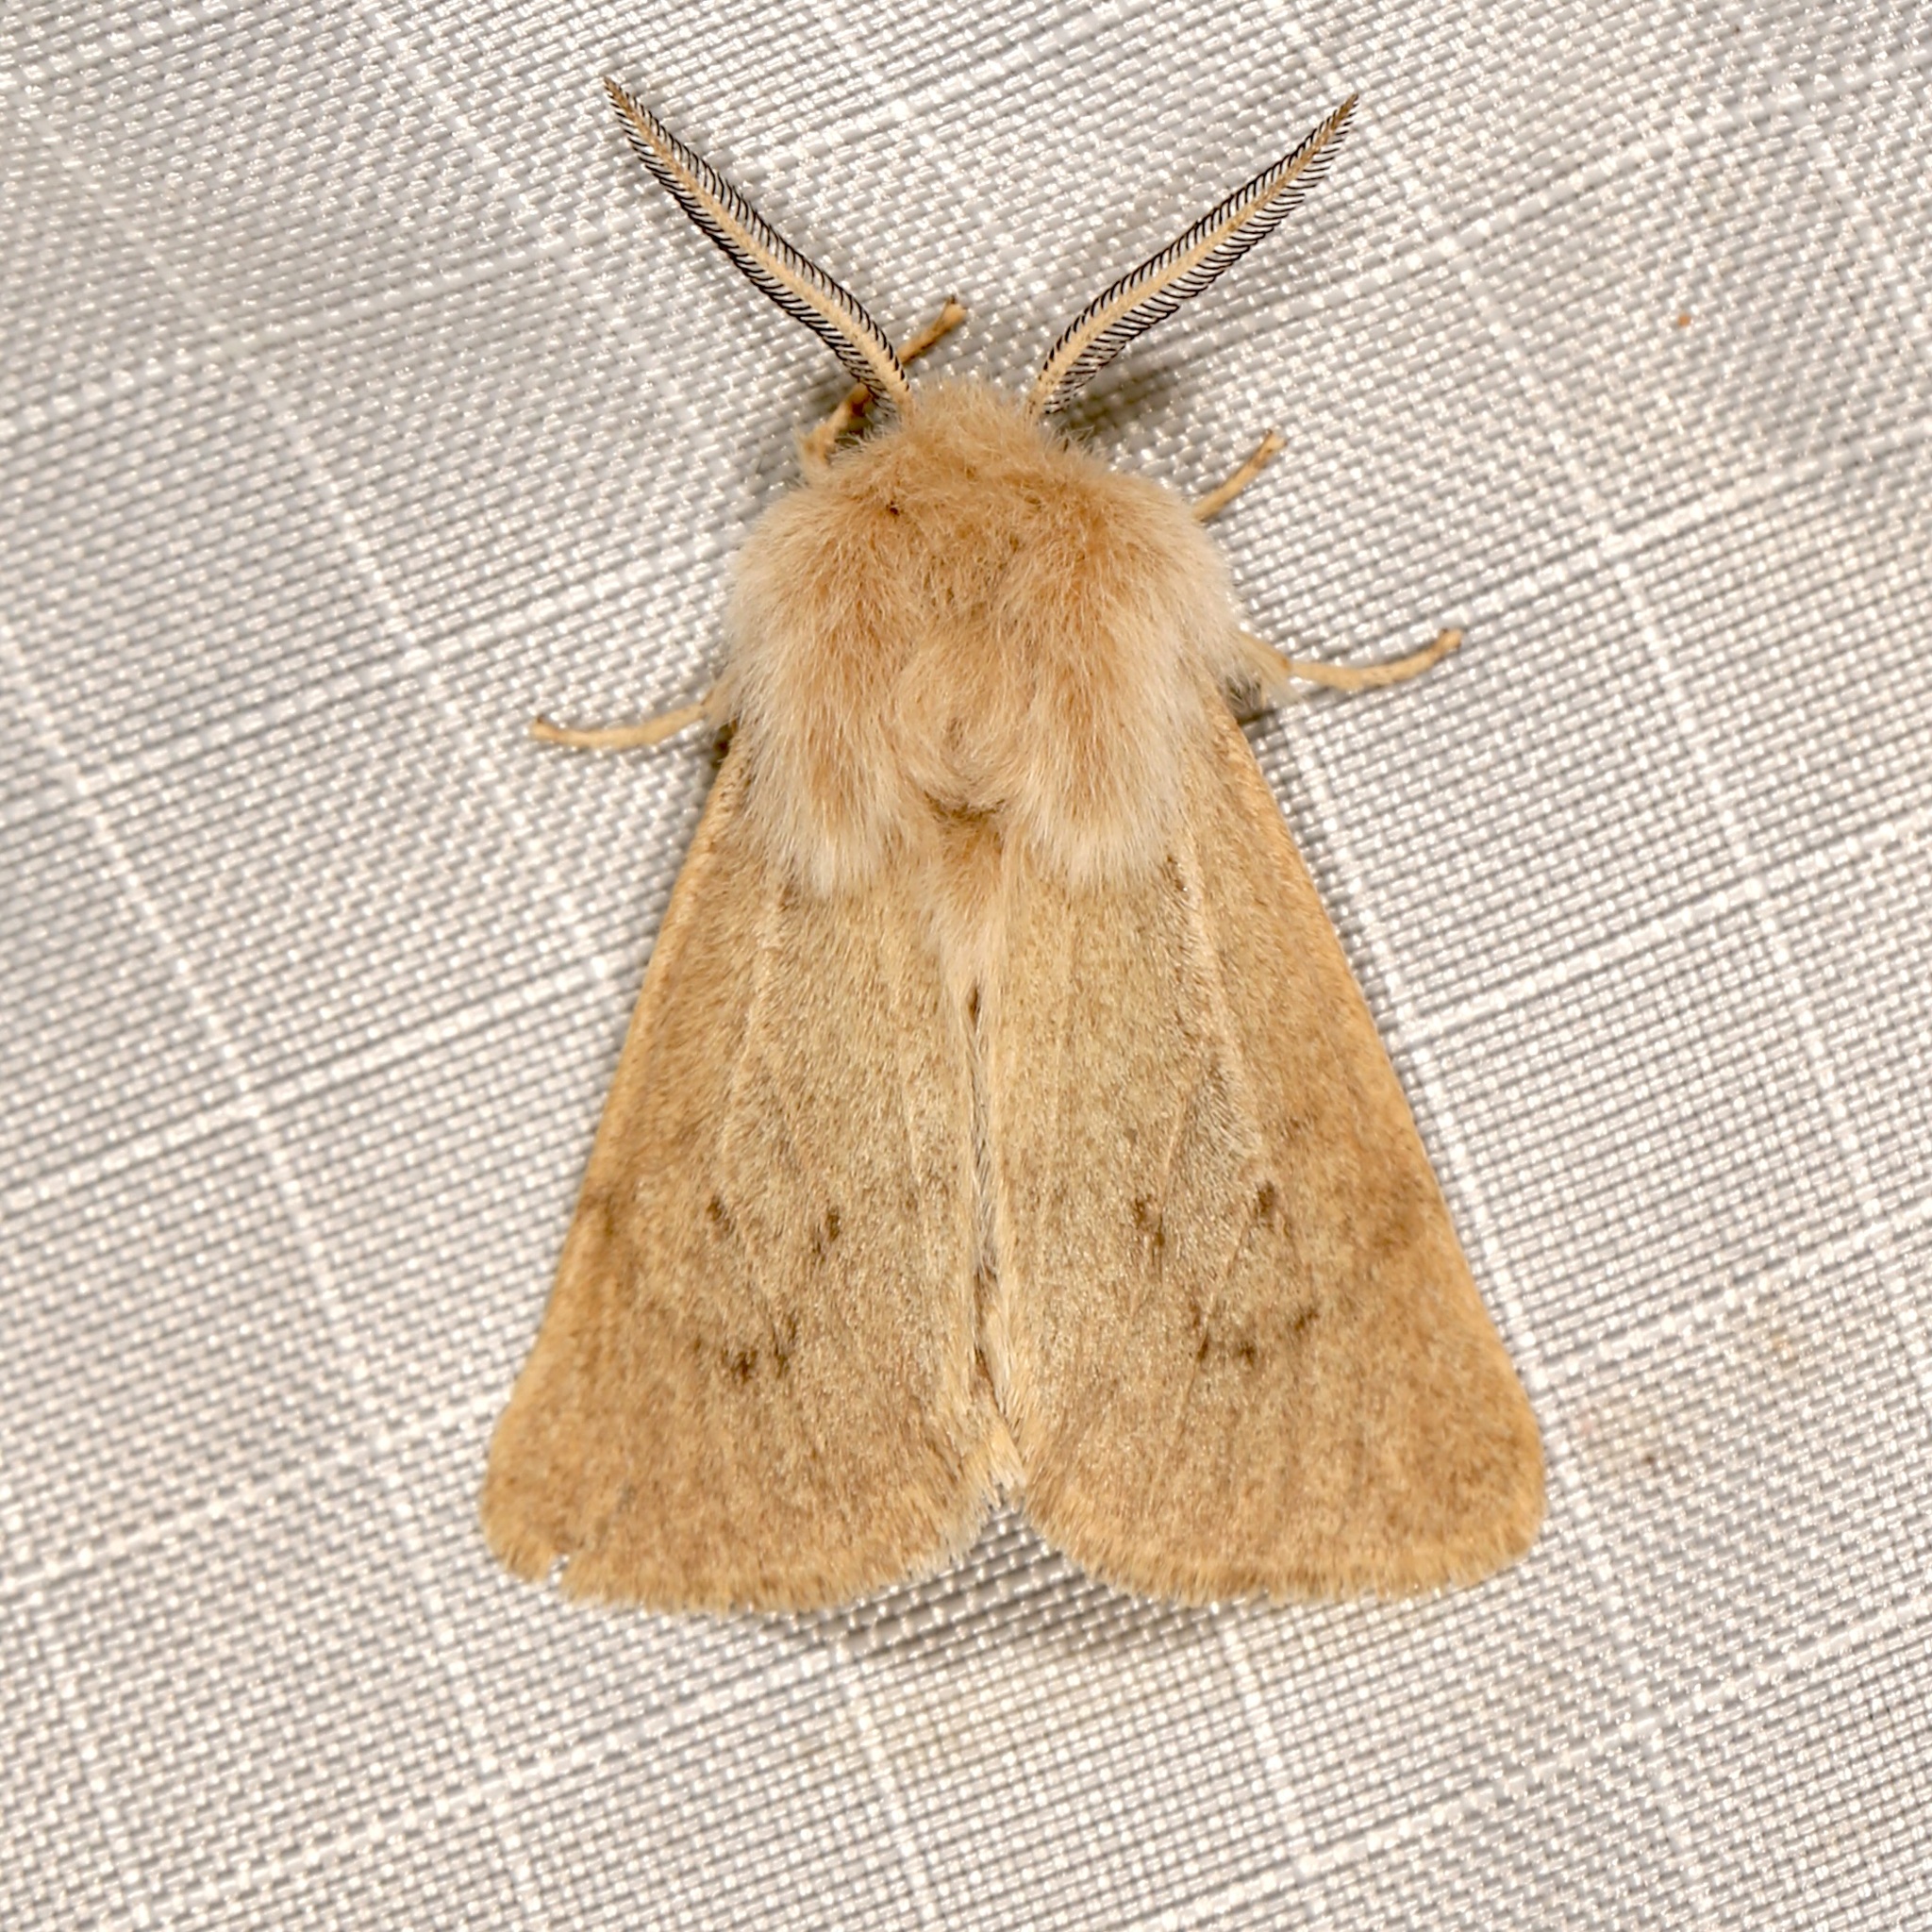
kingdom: Animalia
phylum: Arthropoda
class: Insecta
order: Lepidoptera
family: Erebidae
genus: Spilosoma
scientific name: Spilosoma vagans
